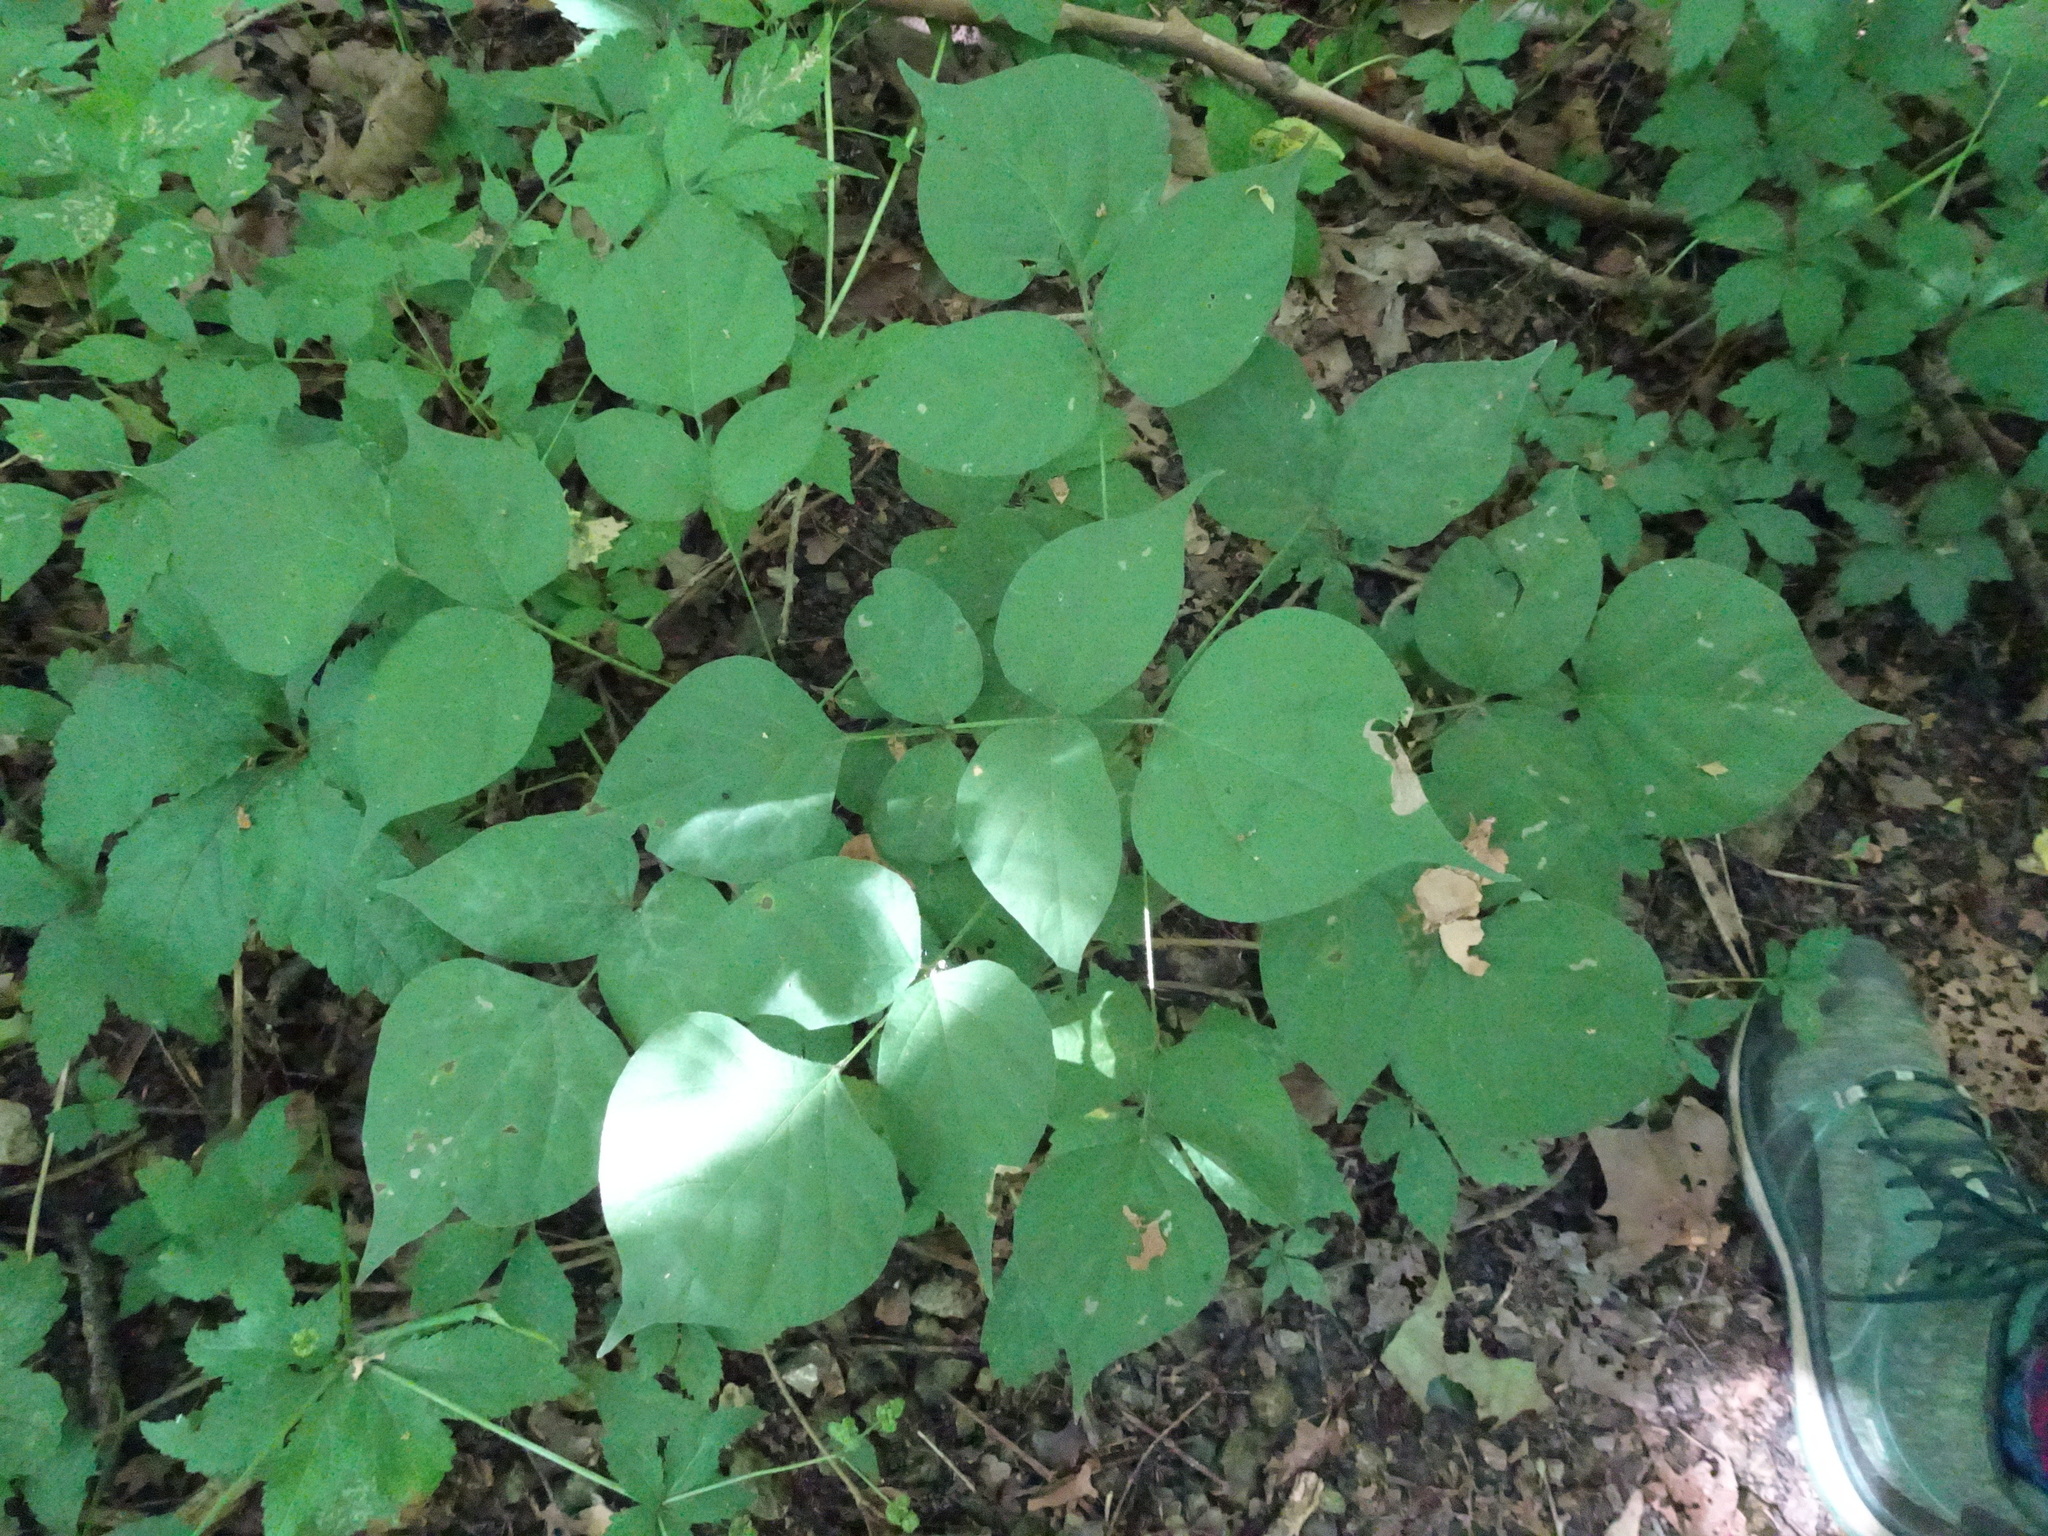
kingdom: Plantae
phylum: Tracheophyta
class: Magnoliopsida
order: Fabales
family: Fabaceae
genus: Hylodesmum
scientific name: Hylodesmum glutinosum
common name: Clustered-leaved tick-trefoil
